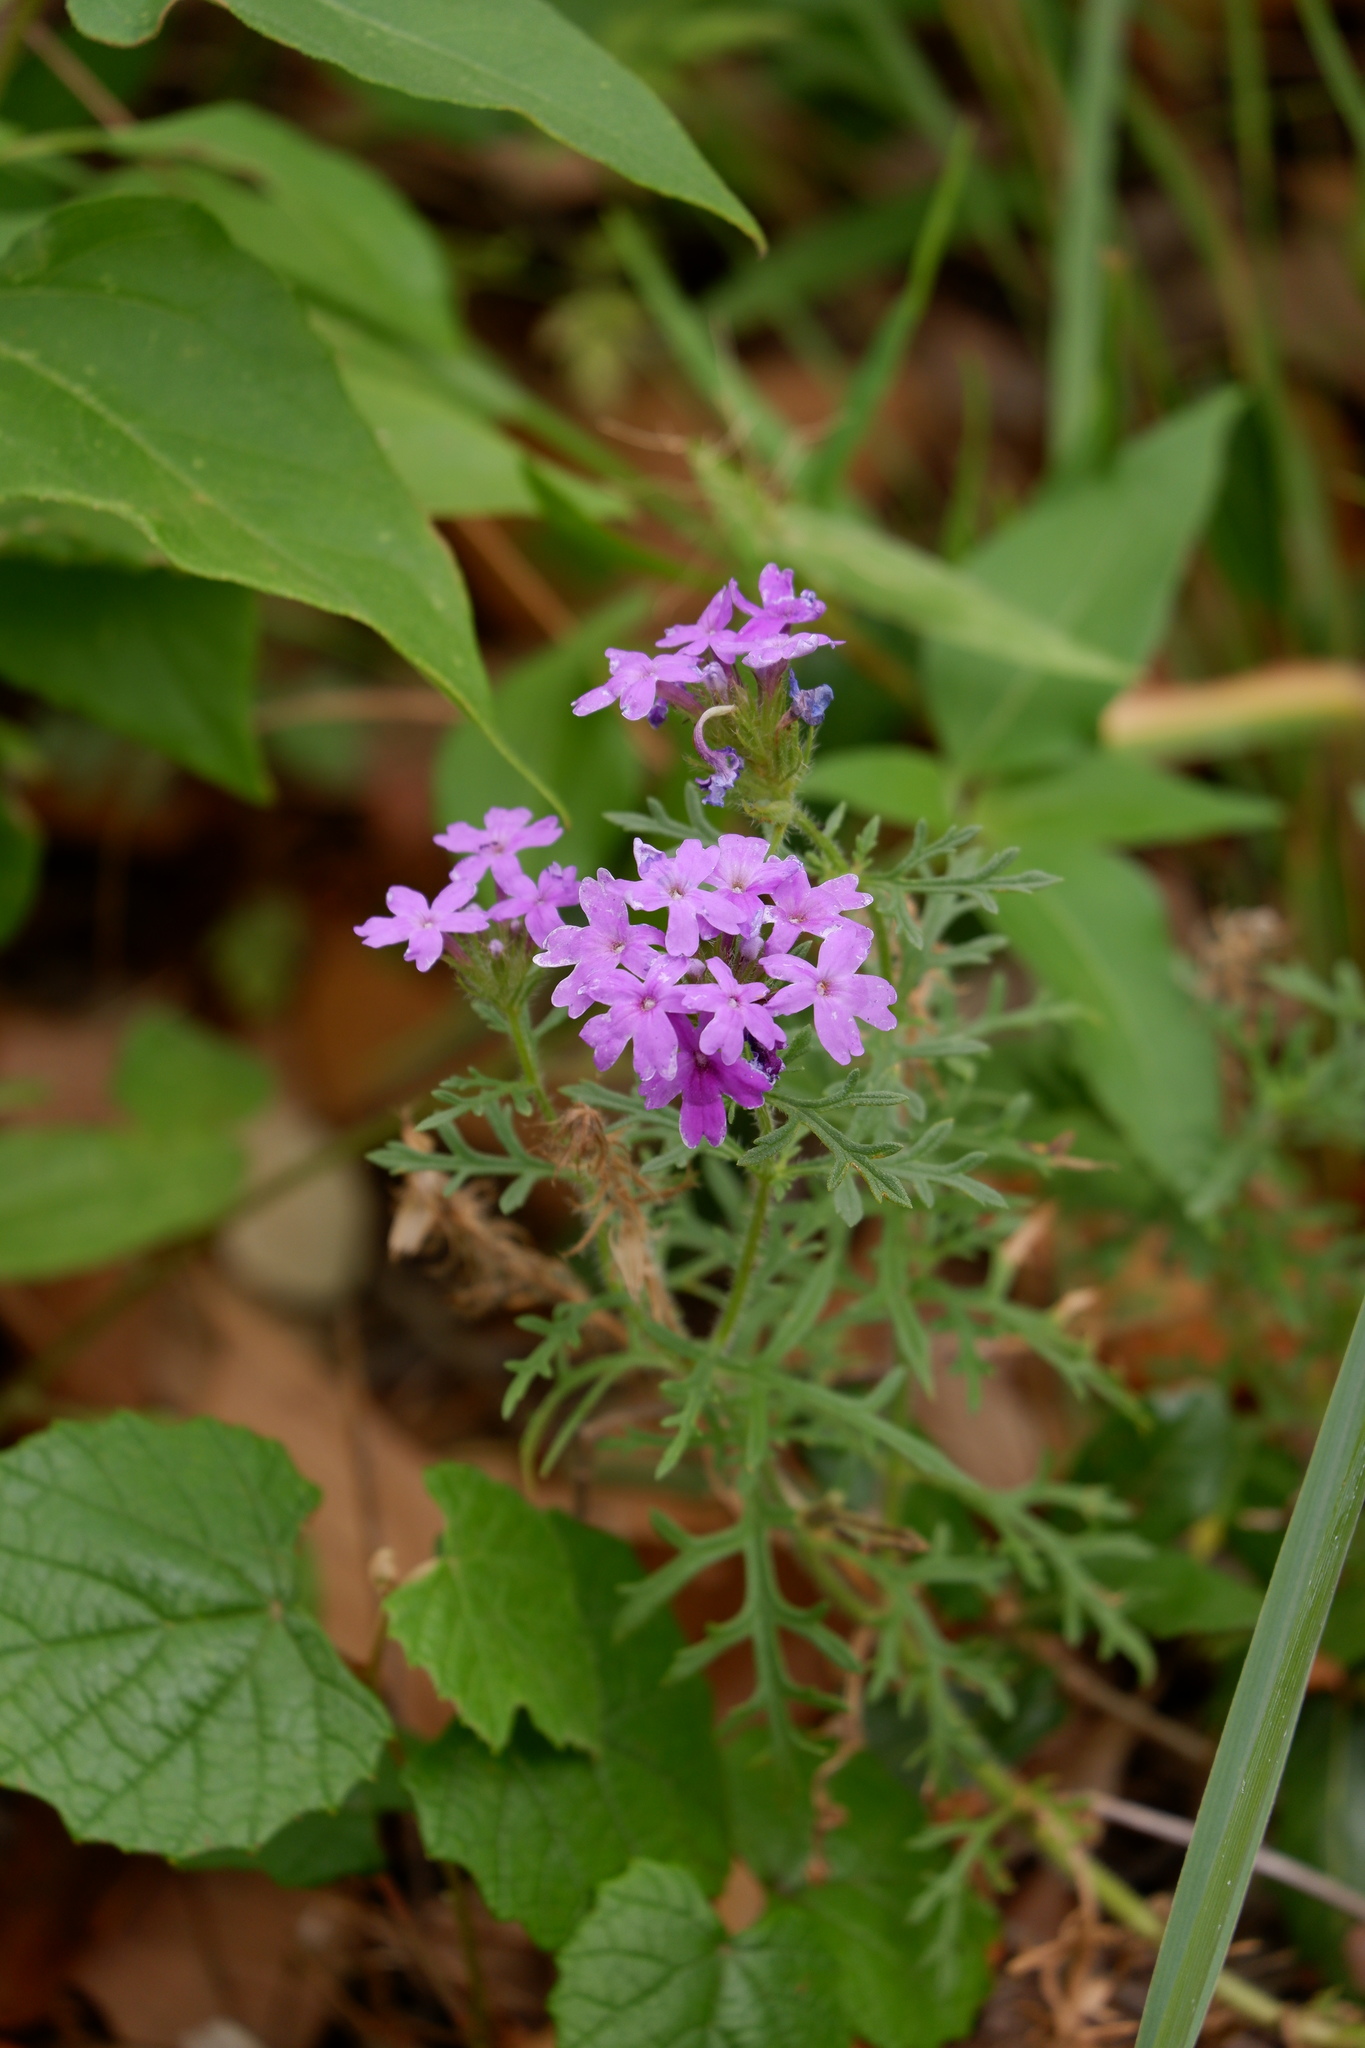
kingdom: Plantae
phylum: Tracheophyta
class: Magnoliopsida
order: Lamiales
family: Verbenaceae
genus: Verbena
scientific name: Verbena bipinnatifida
